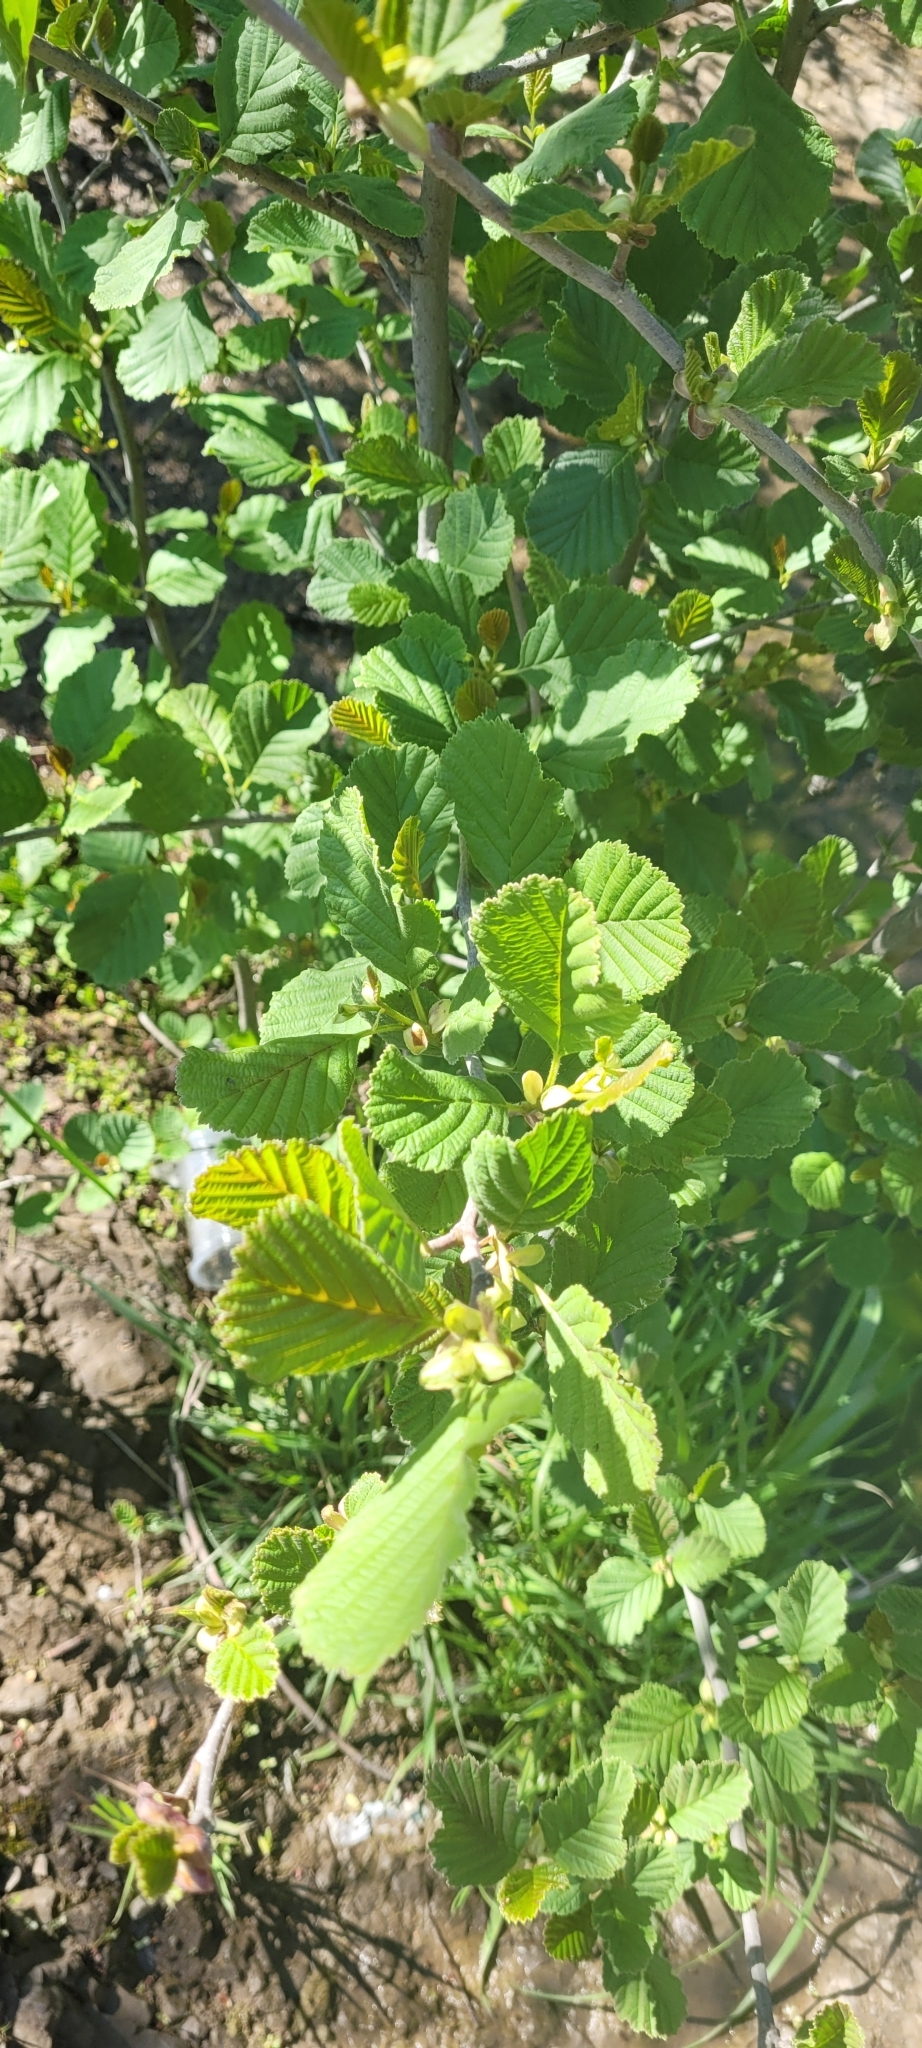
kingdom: Plantae
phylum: Tracheophyta
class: Magnoliopsida
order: Fagales
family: Betulaceae
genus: Alnus
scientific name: Alnus glutinosa
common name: Black alder
